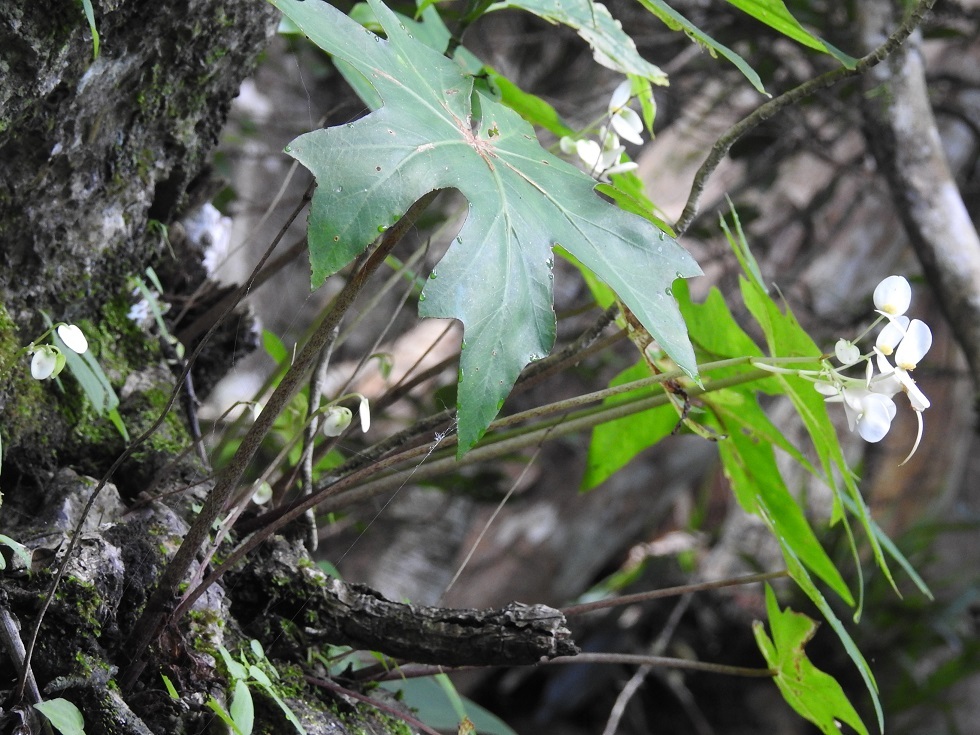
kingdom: Plantae
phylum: Tracheophyta
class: Magnoliopsida
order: Cucurbitales
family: Begoniaceae
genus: Begonia
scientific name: Begonia corzoensis
